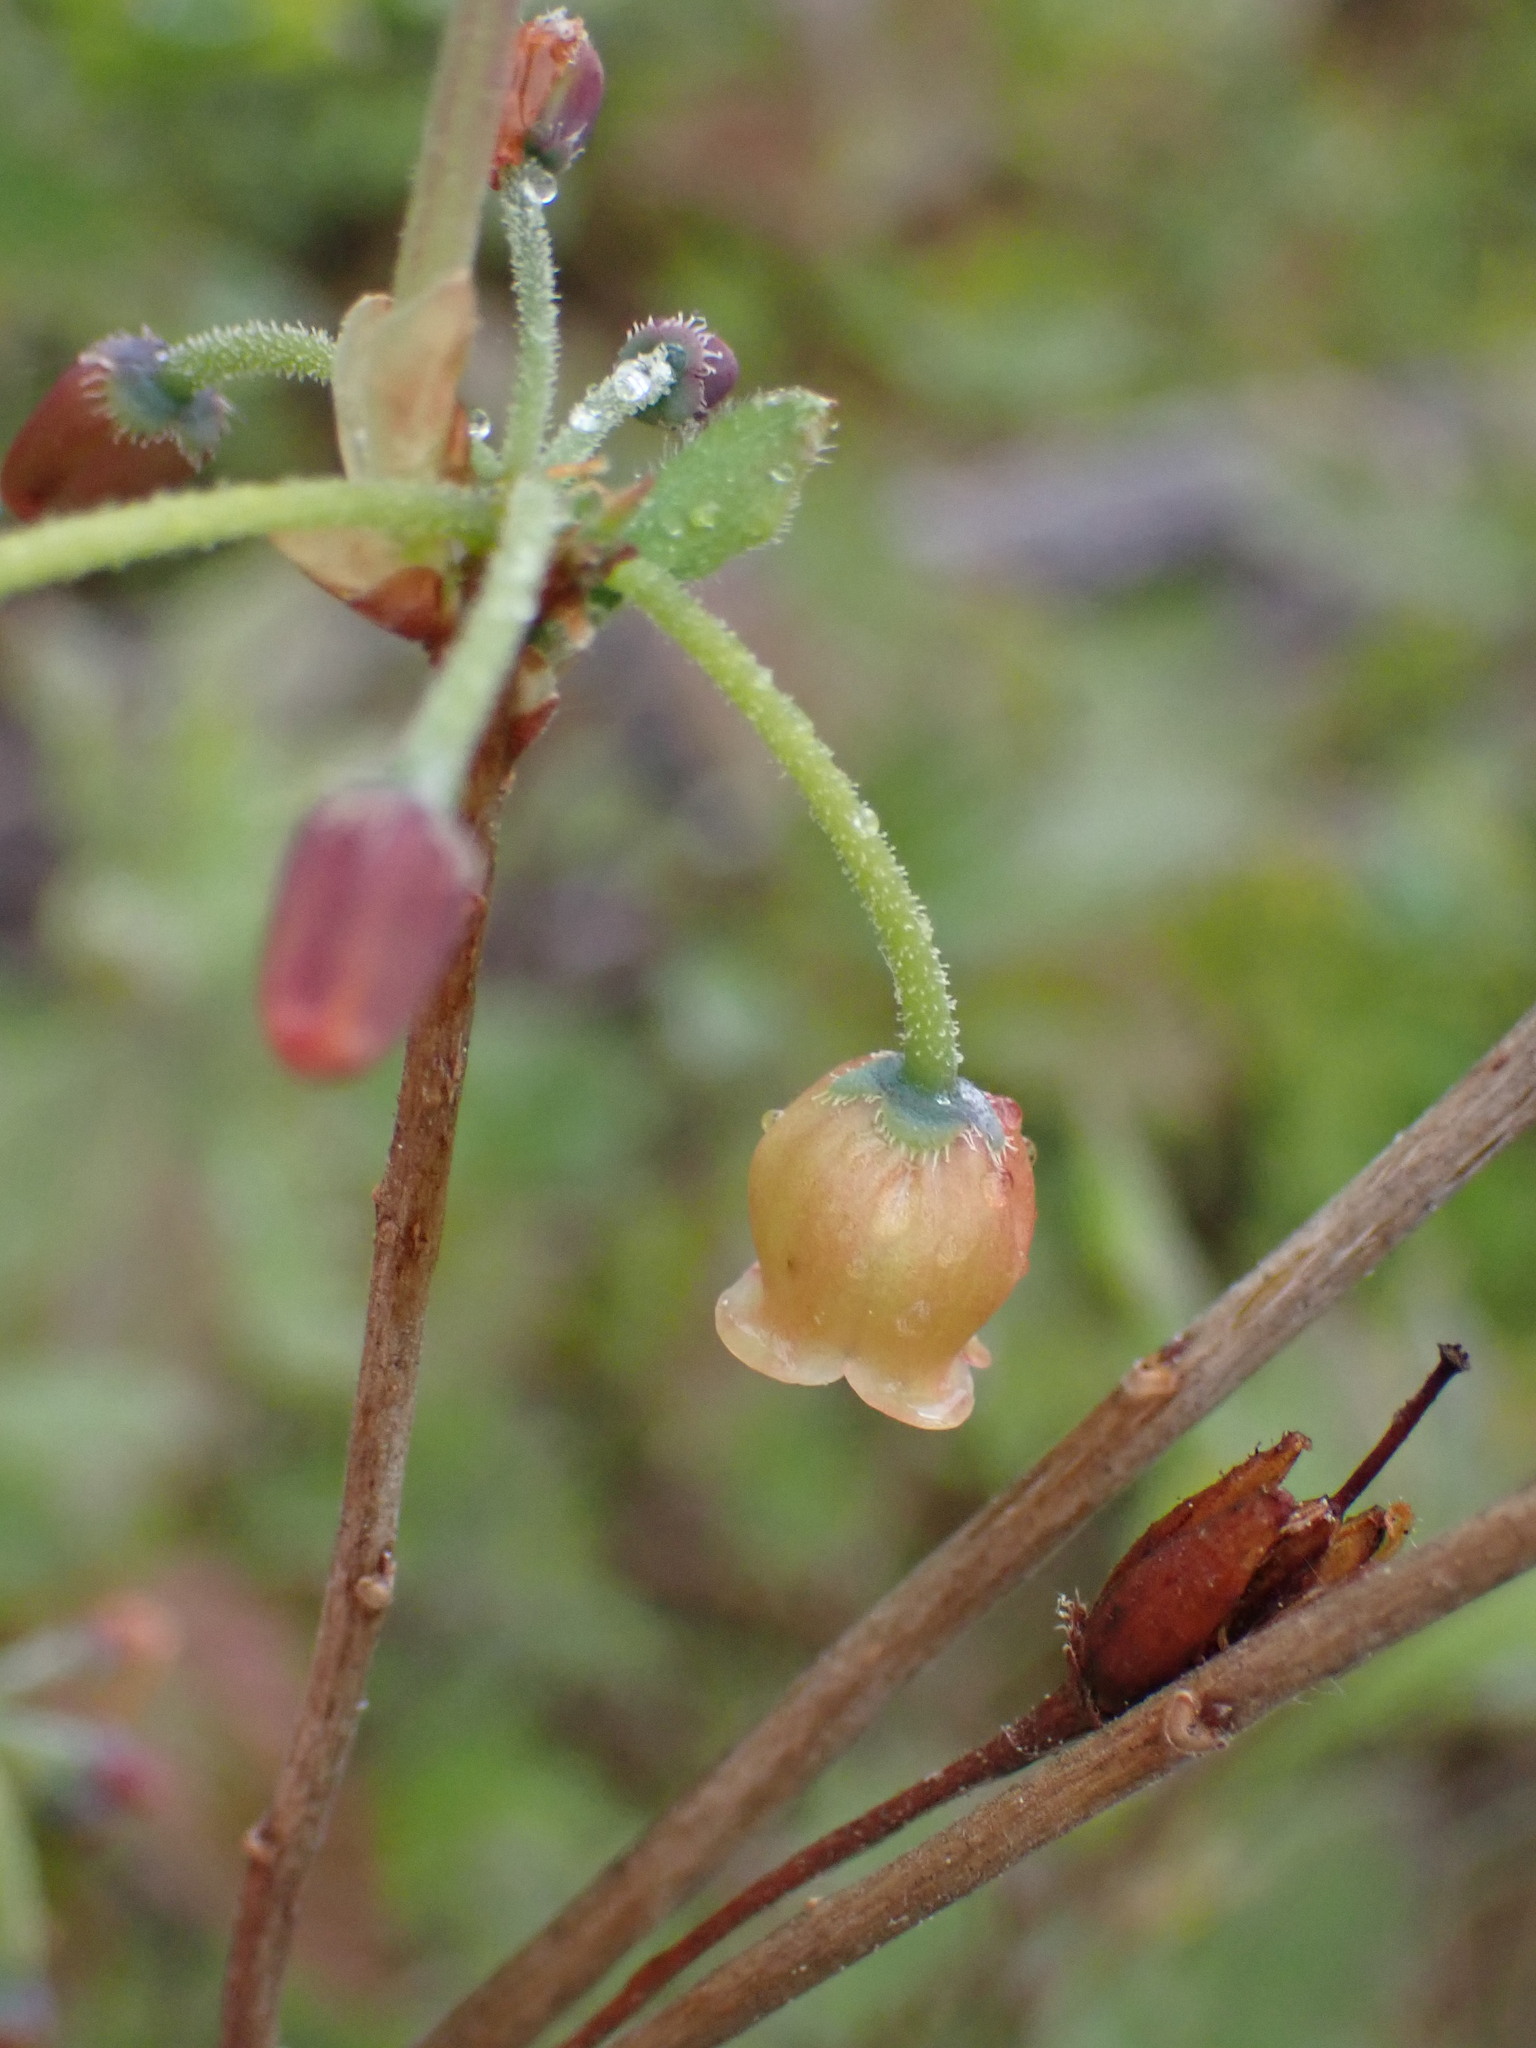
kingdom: Plantae
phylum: Tracheophyta
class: Magnoliopsida
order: Ericales
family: Ericaceae
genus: Rhododendron
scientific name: Rhododendron menziesii
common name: Pacific menziesia
